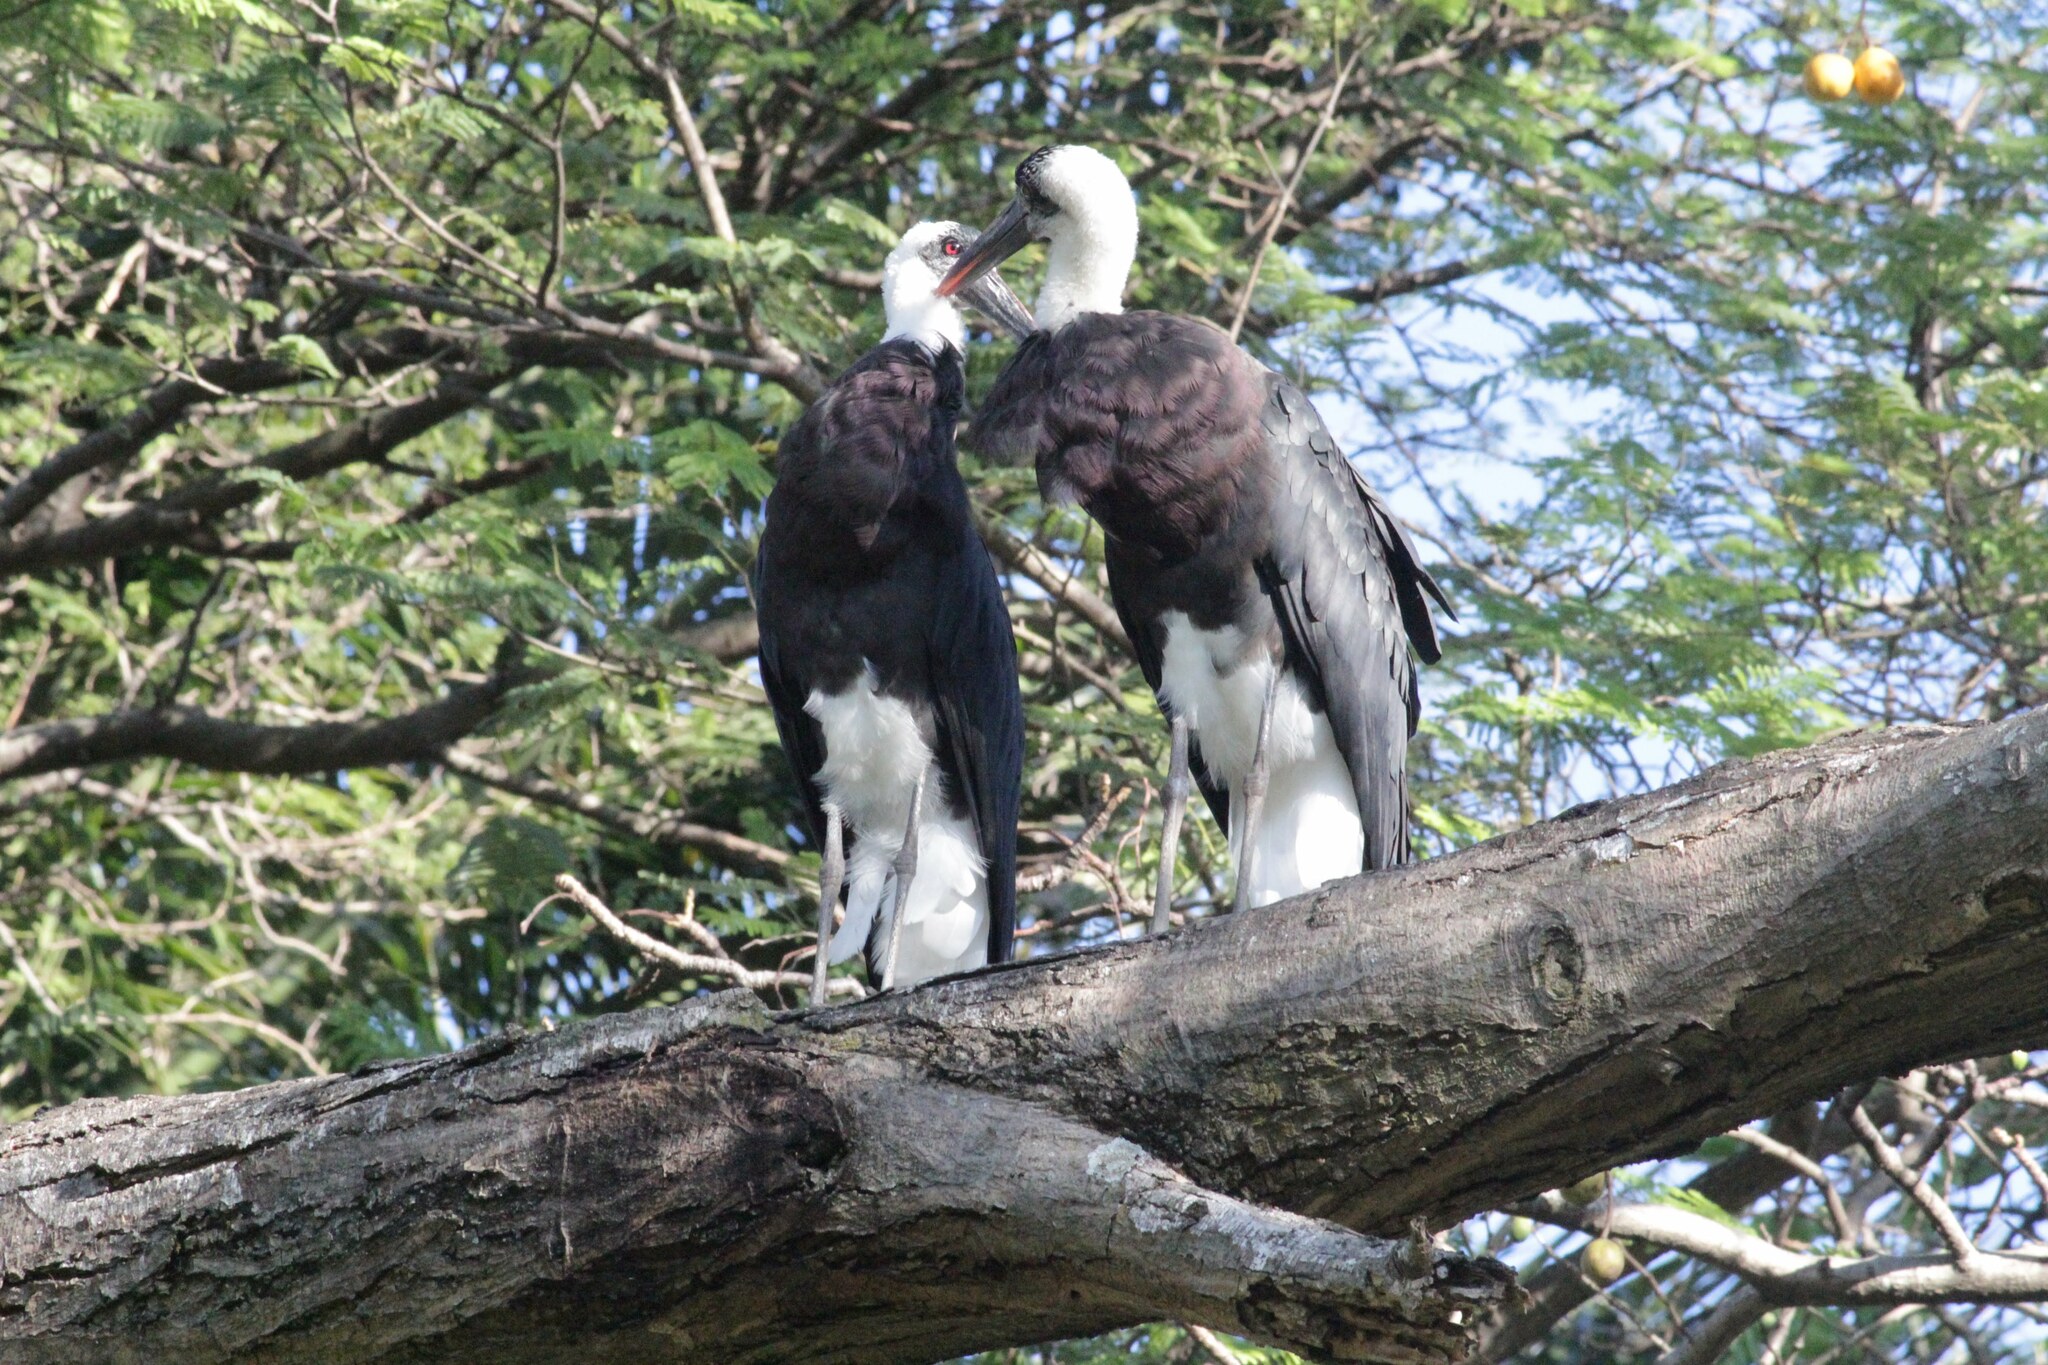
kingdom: Animalia
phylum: Chordata
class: Aves
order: Ciconiiformes
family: Ciconiidae
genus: Ciconia
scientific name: Ciconia microscelis
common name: African woollyneck
